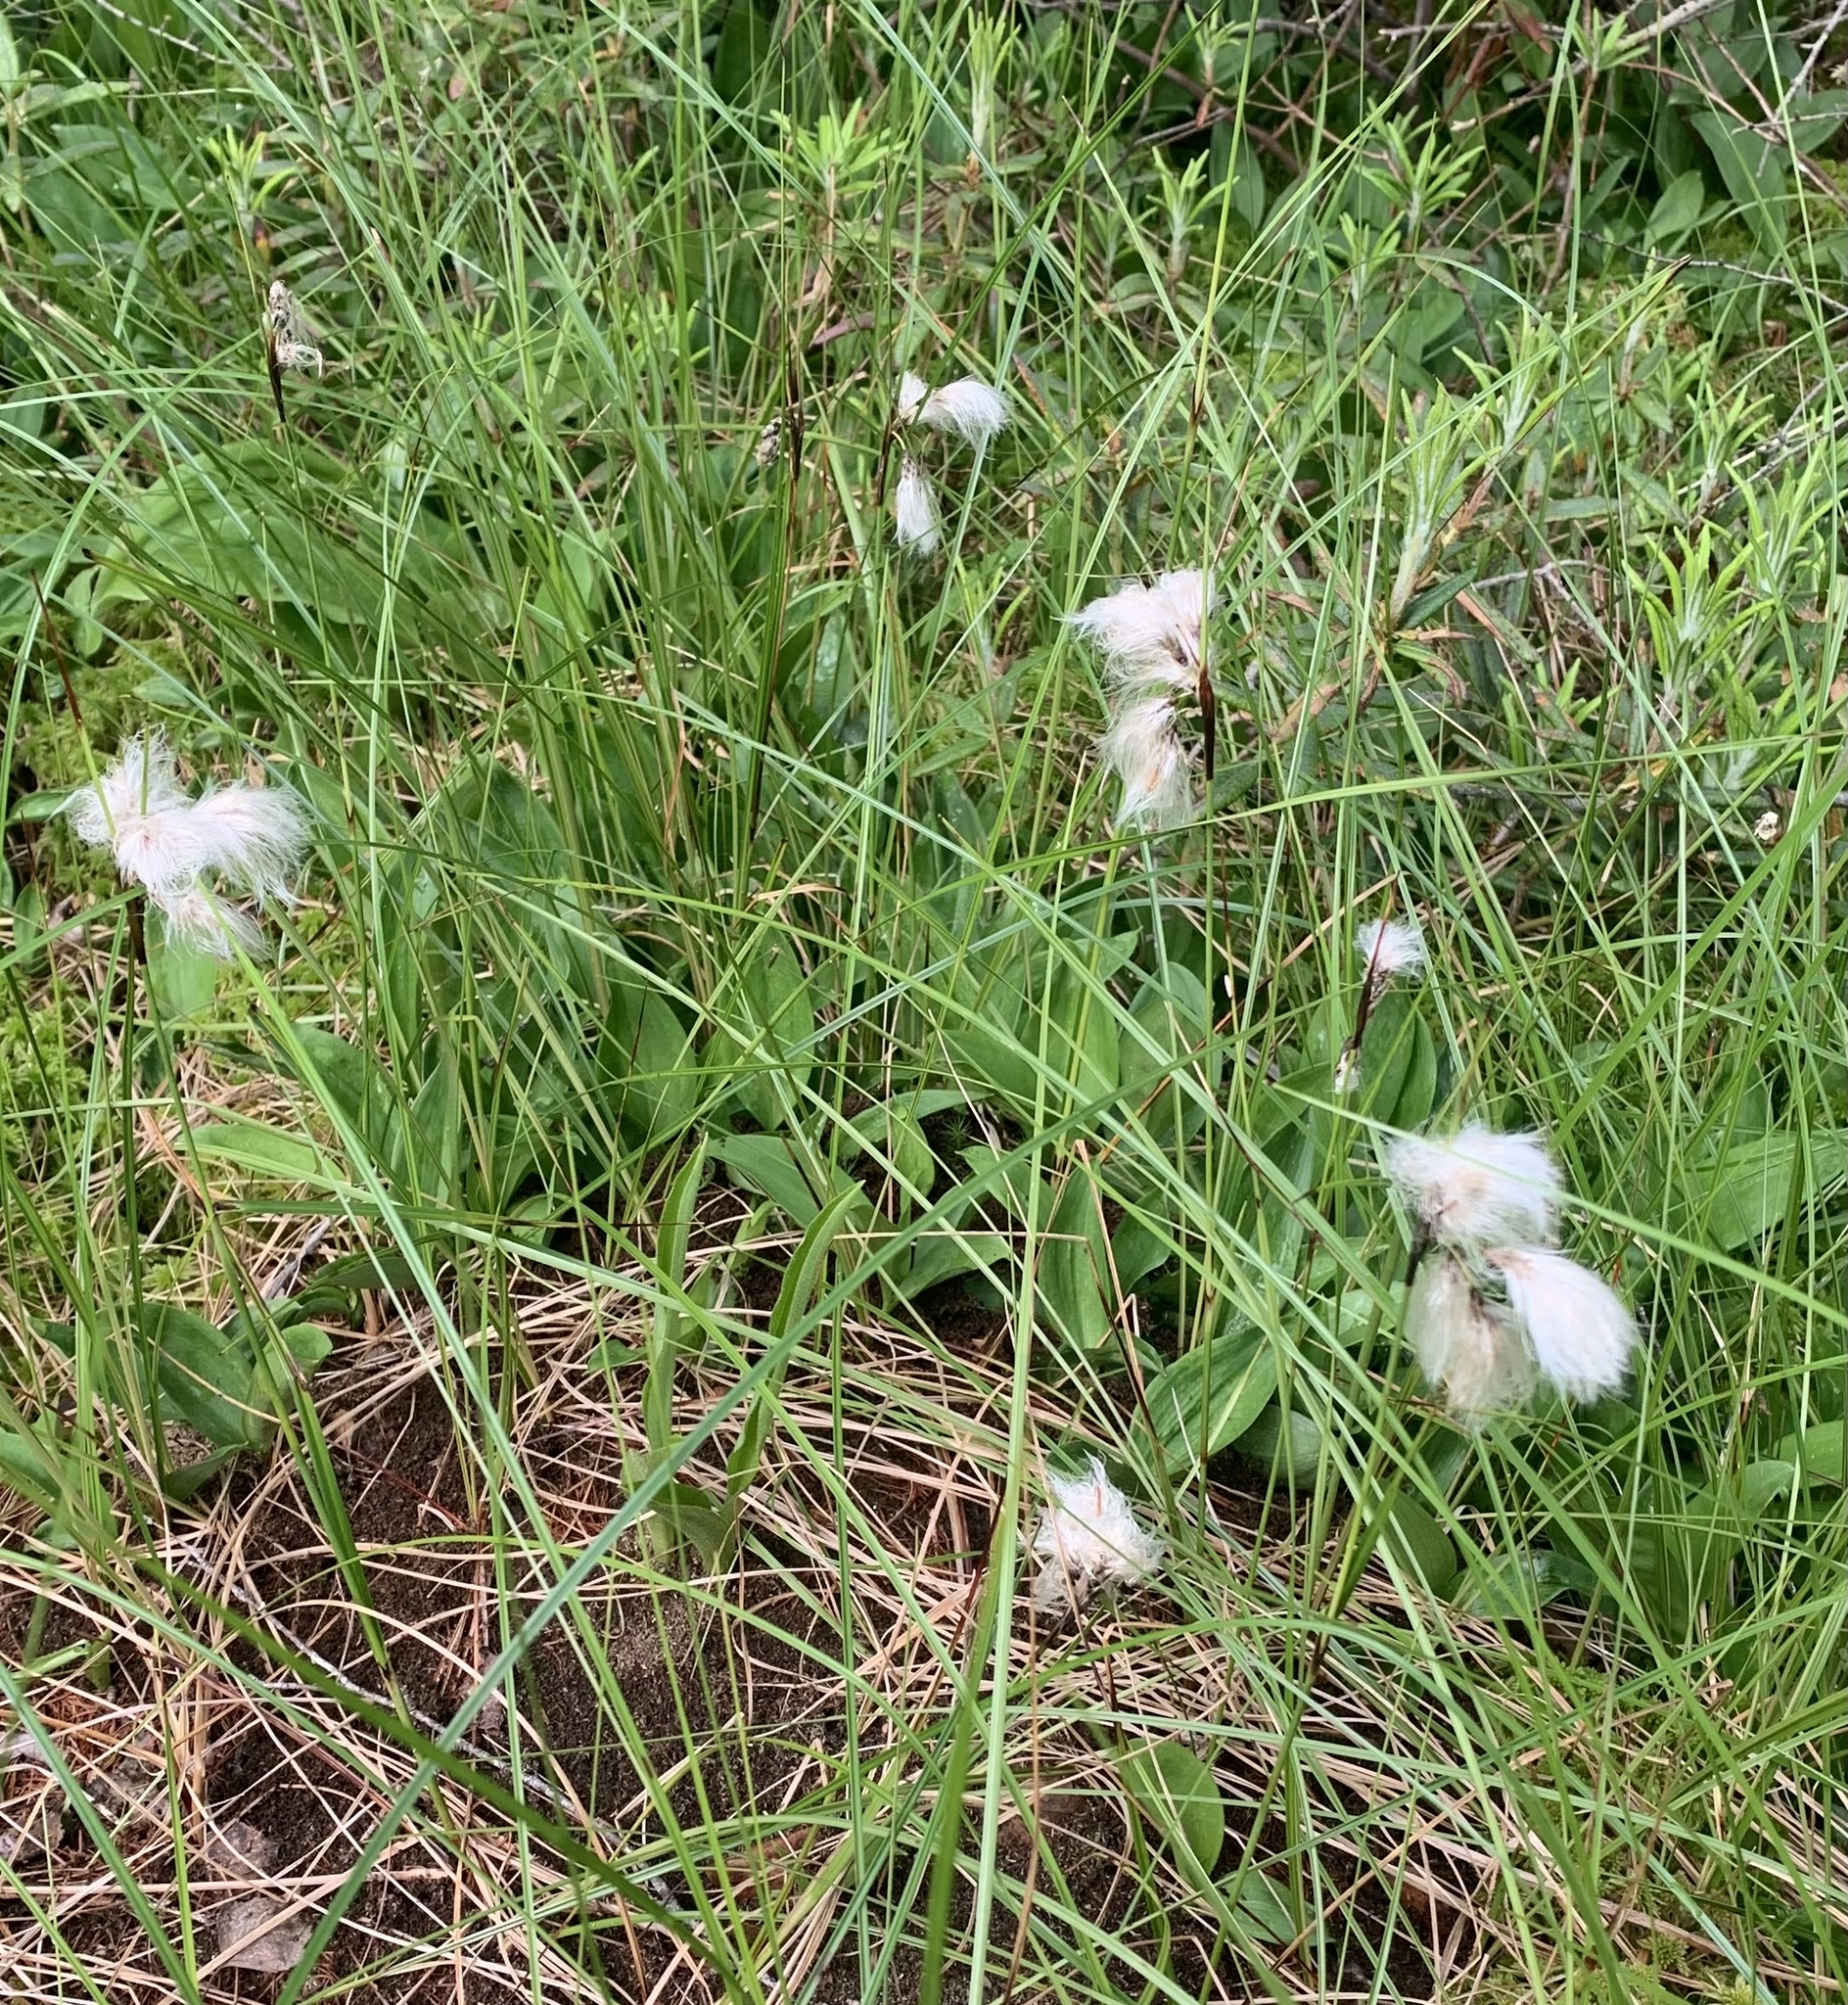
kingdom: Plantae
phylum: Tracheophyta
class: Liliopsida
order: Poales
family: Cyperaceae
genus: Eriophorum
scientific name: Eriophorum angustifolium
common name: Common cottongrass
